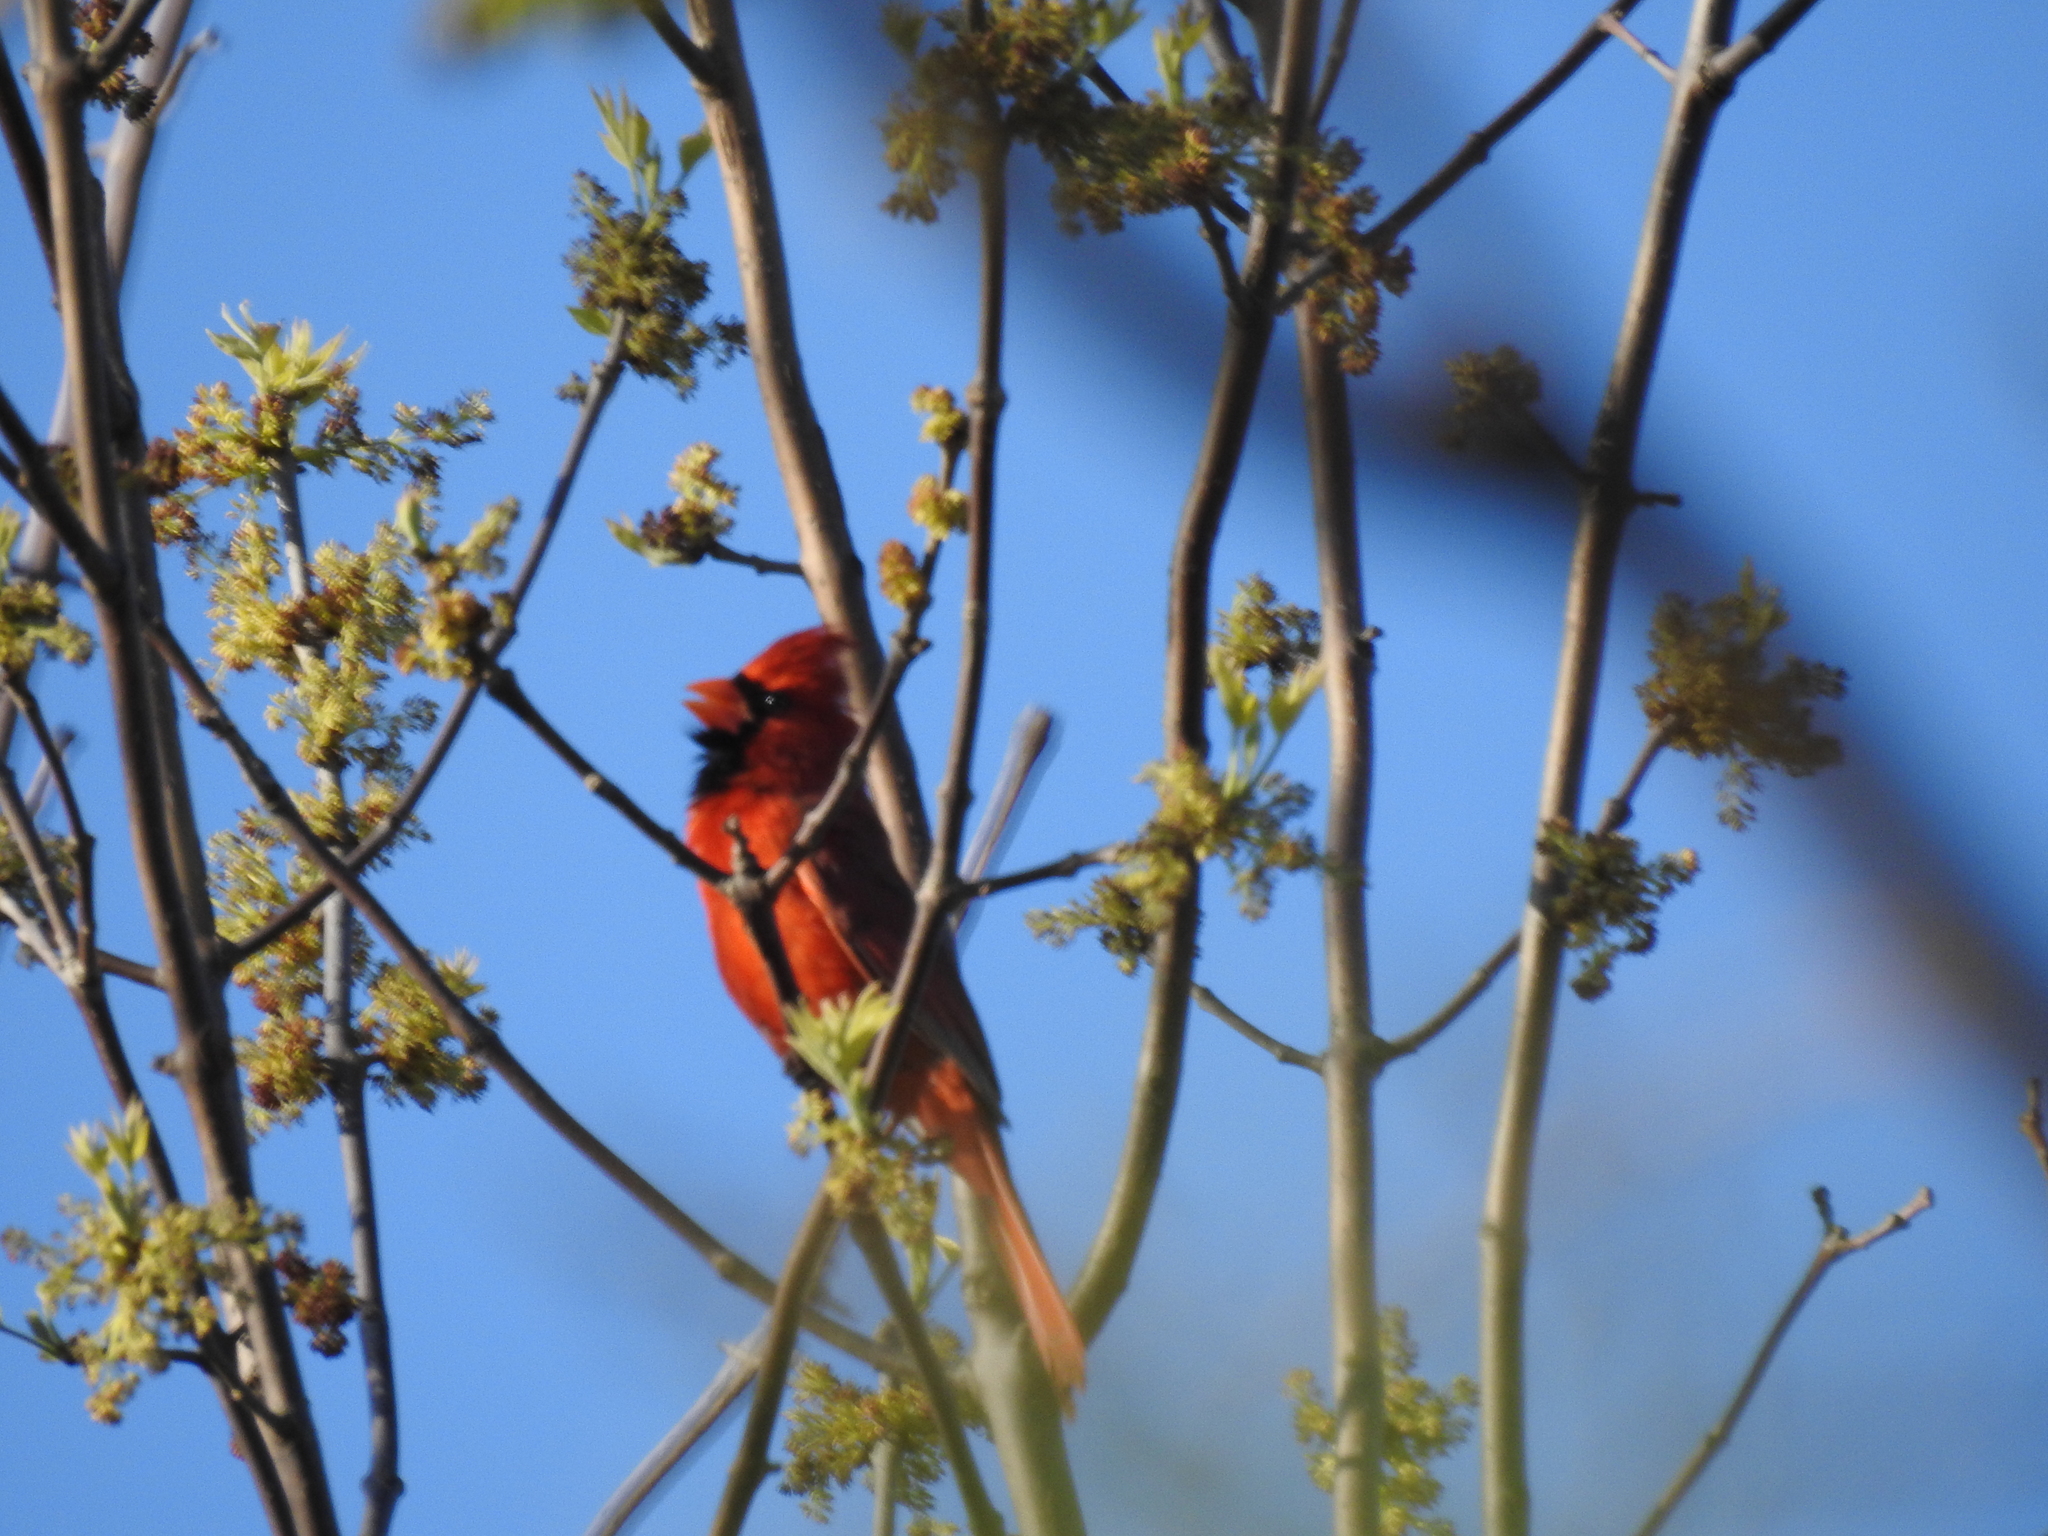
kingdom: Animalia
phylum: Chordata
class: Aves
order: Passeriformes
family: Cardinalidae
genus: Cardinalis
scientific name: Cardinalis cardinalis
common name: Northern cardinal
